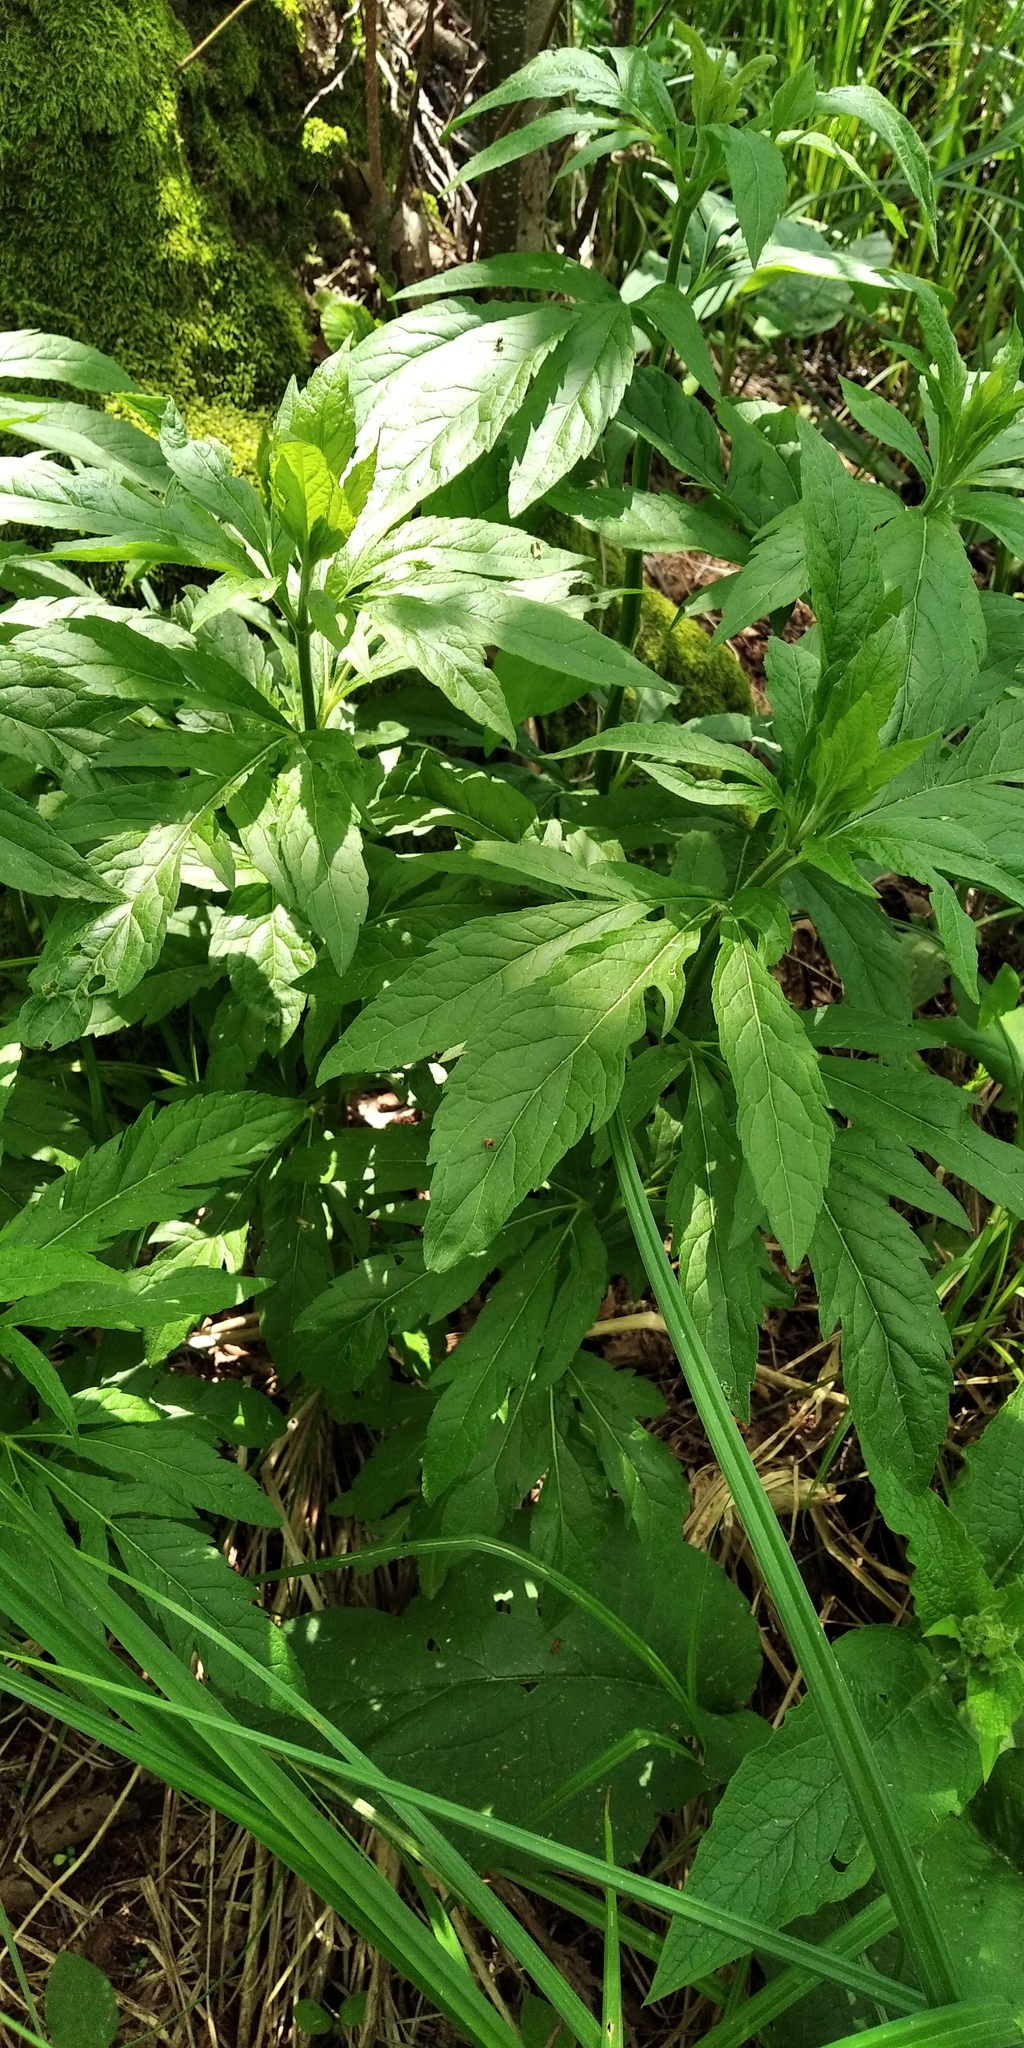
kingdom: Plantae
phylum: Tracheophyta
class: Magnoliopsida
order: Asterales
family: Asteraceae
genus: Eupatorium
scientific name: Eupatorium cannabinum
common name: Hemp-agrimony
